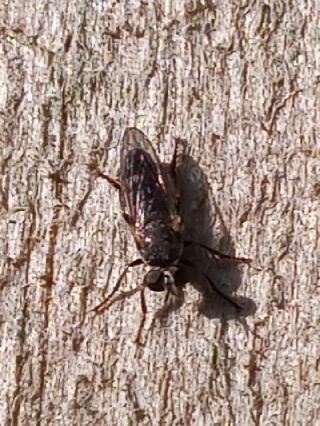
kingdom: Animalia
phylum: Arthropoda
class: Insecta
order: Diptera
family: Asilidae
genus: Atomosia
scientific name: Atomosia puella
